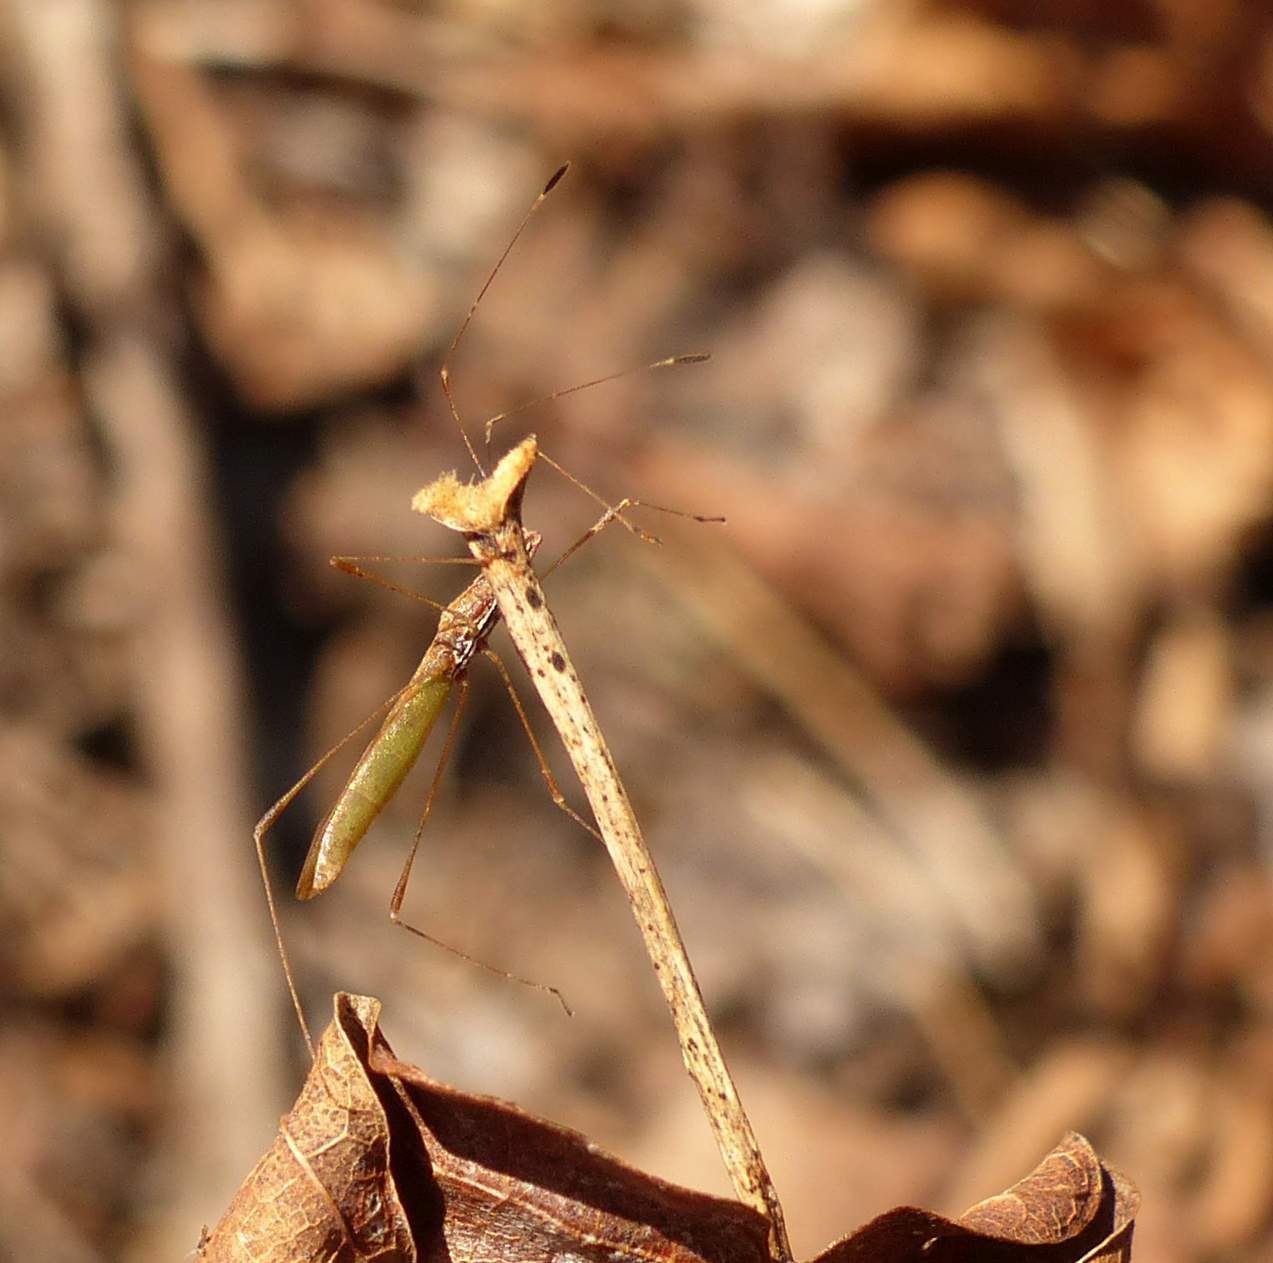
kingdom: Animalia
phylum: Arthropoda
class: Insecta
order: Hemiptera
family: Berytidae
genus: Neoneides
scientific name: Neoneides muticus
